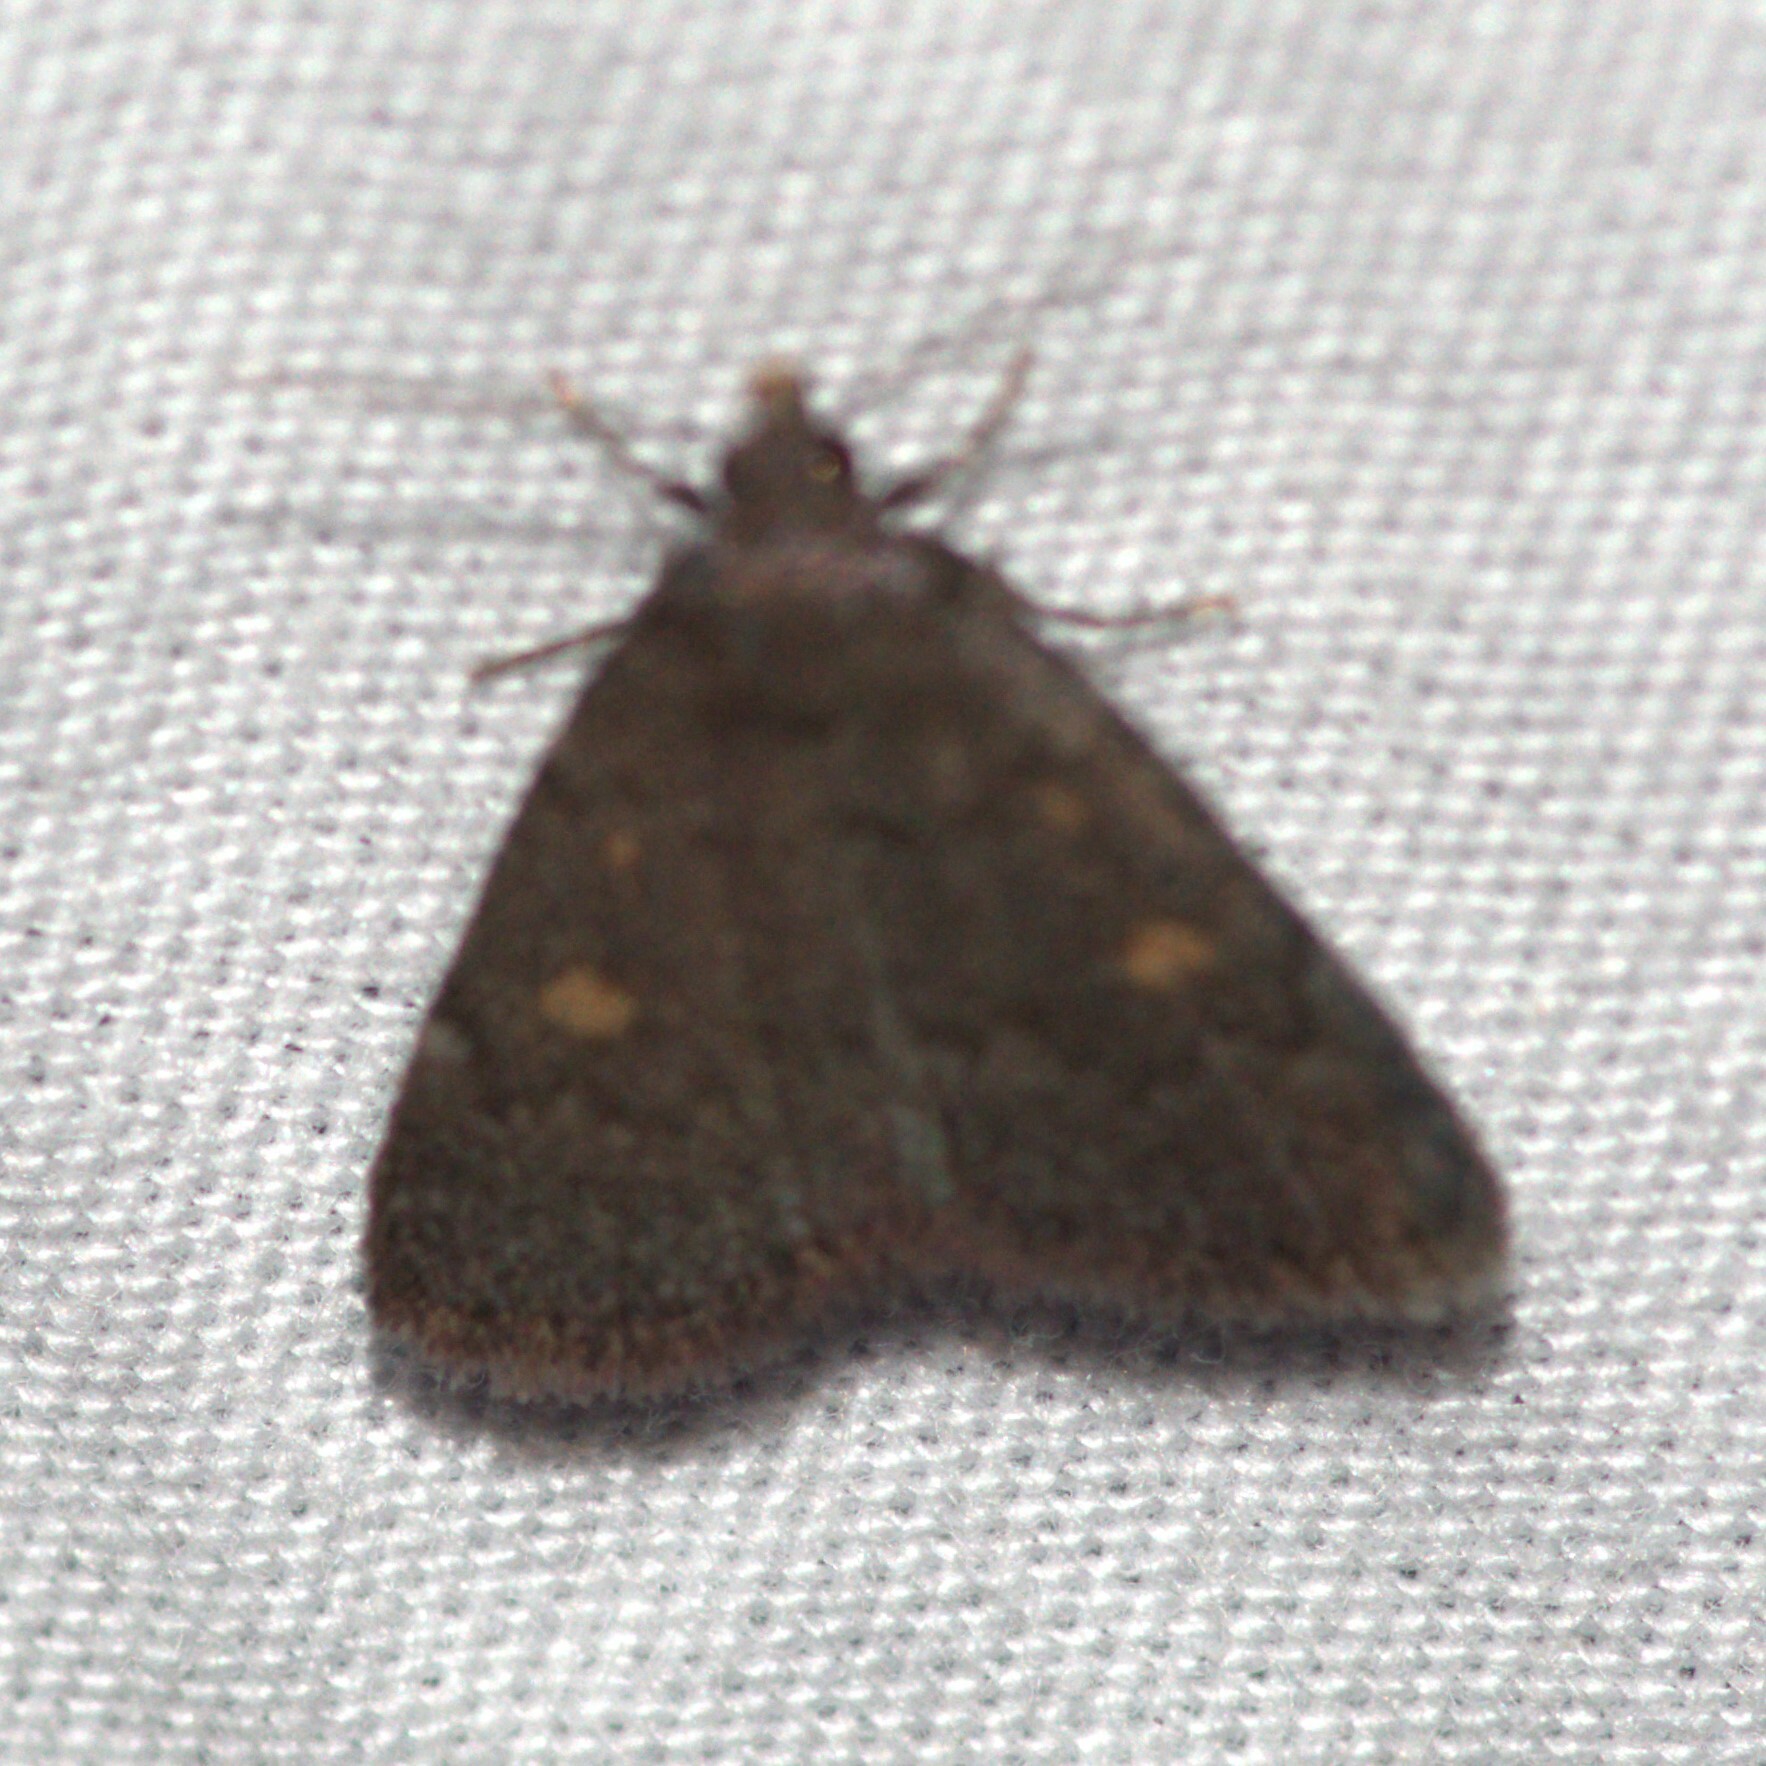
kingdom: Animalia
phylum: Arthropoda
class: Insecta
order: Lepidoptera
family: Erebidae
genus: Idia
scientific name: Idia diminuendis
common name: Orange-spotted idia moth
